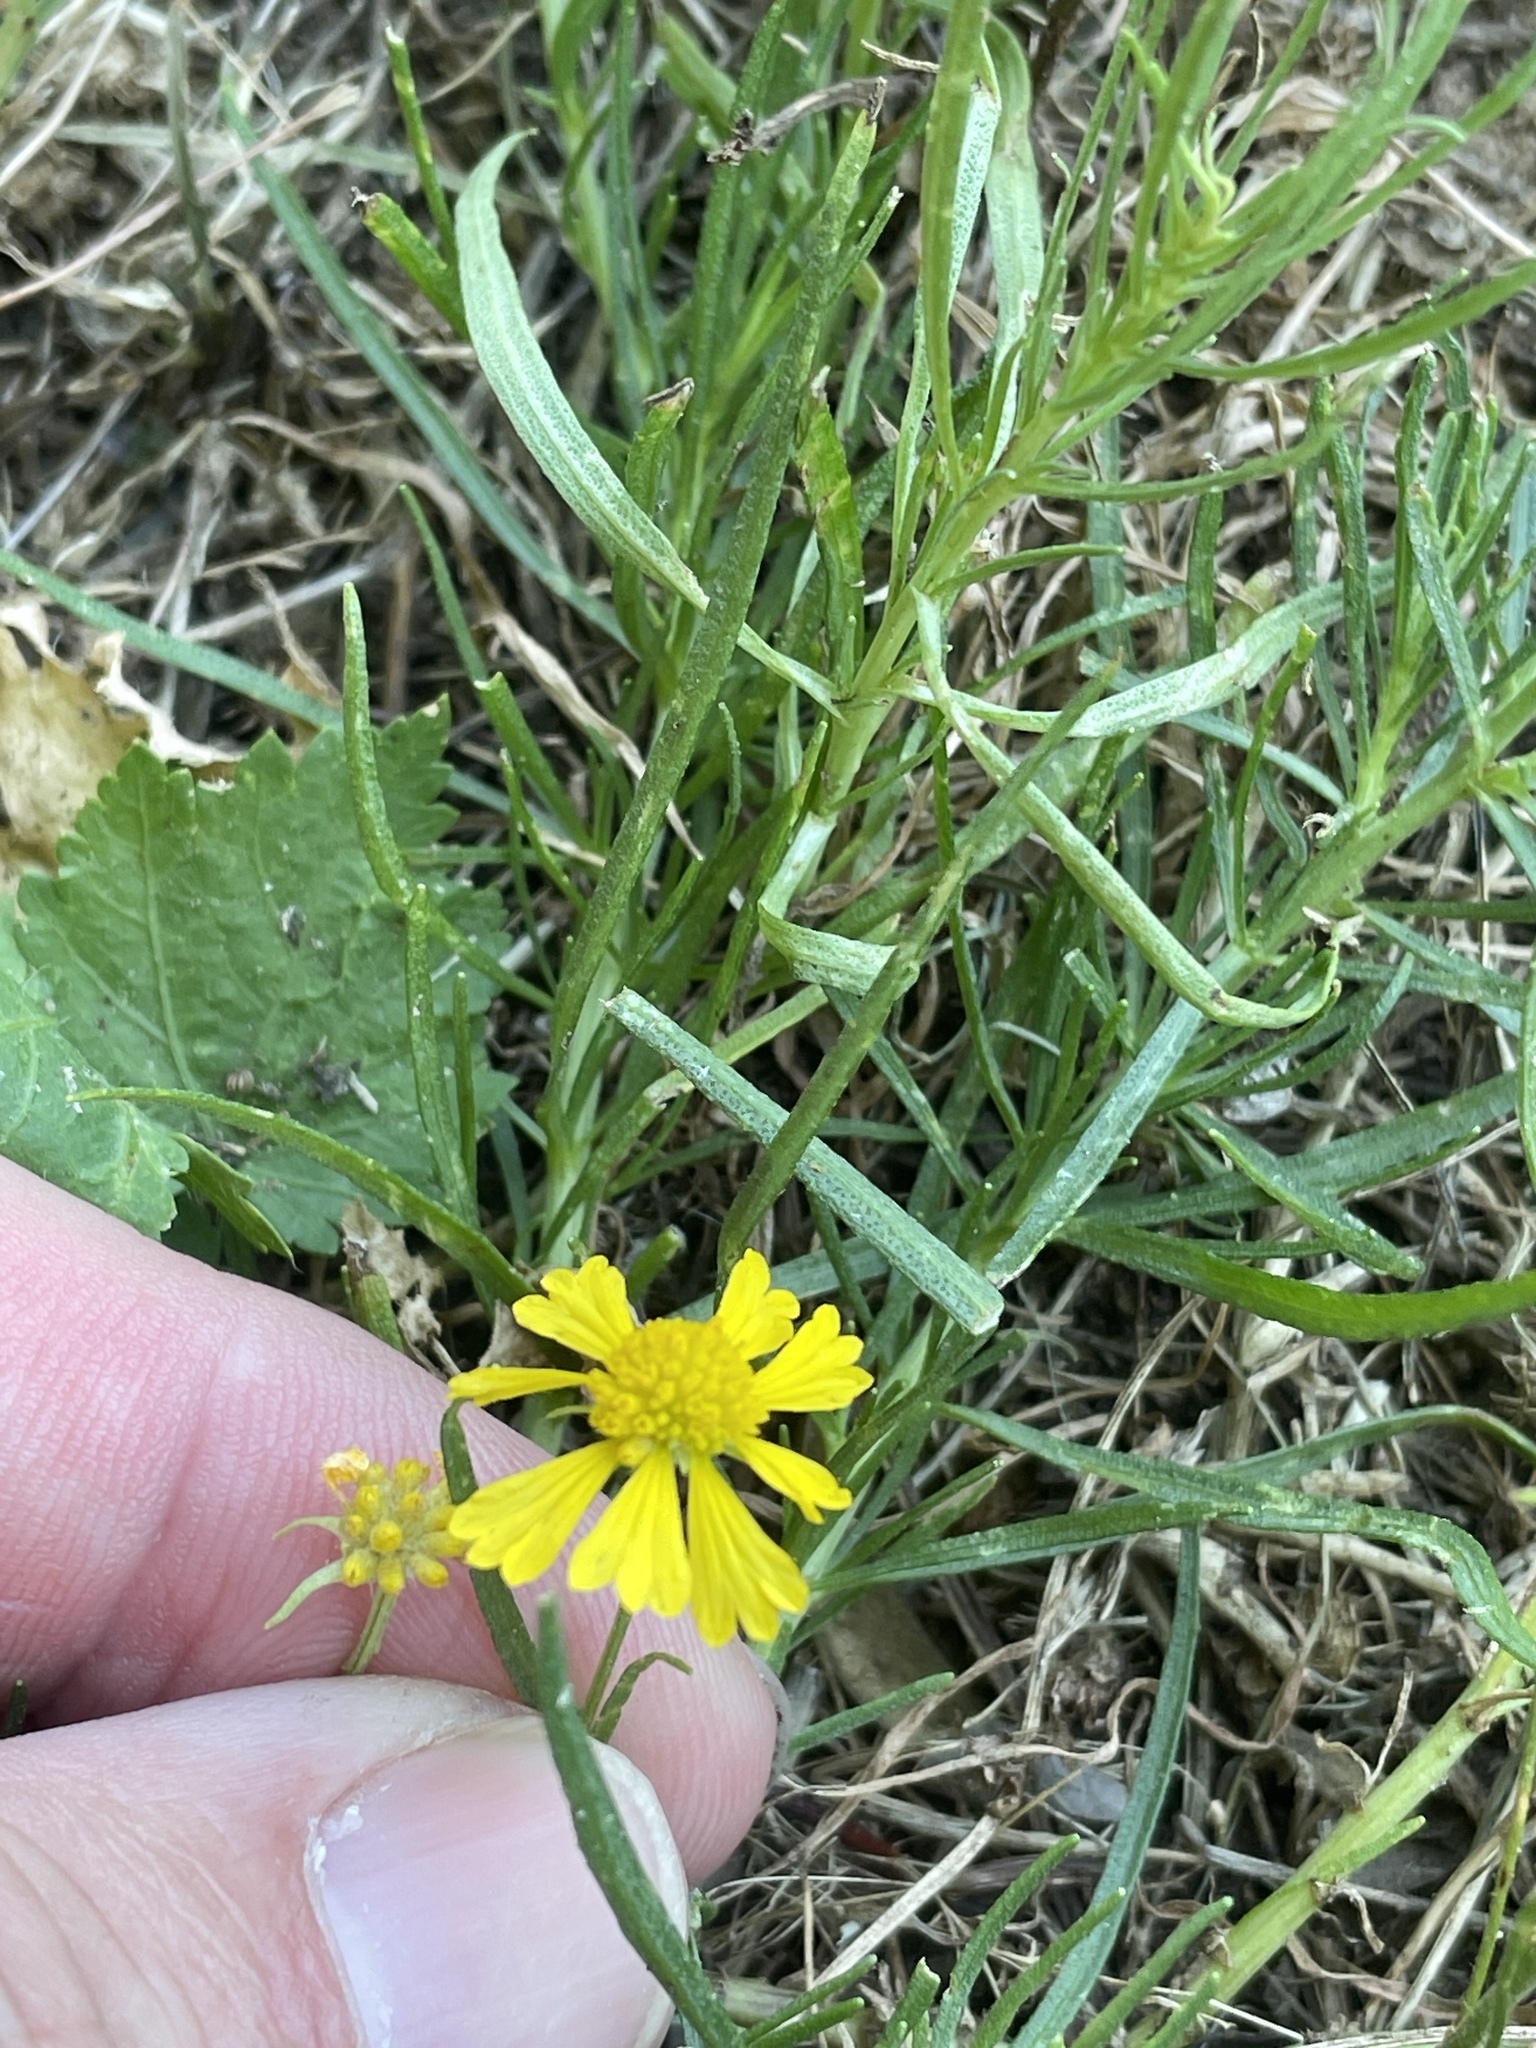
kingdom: Plantae
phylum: Tracheophyta
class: Magnoliopsida
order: Asterales
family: Asteraceae
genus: Helenium
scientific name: Helenium amarum
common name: Bitter sneezeweed
